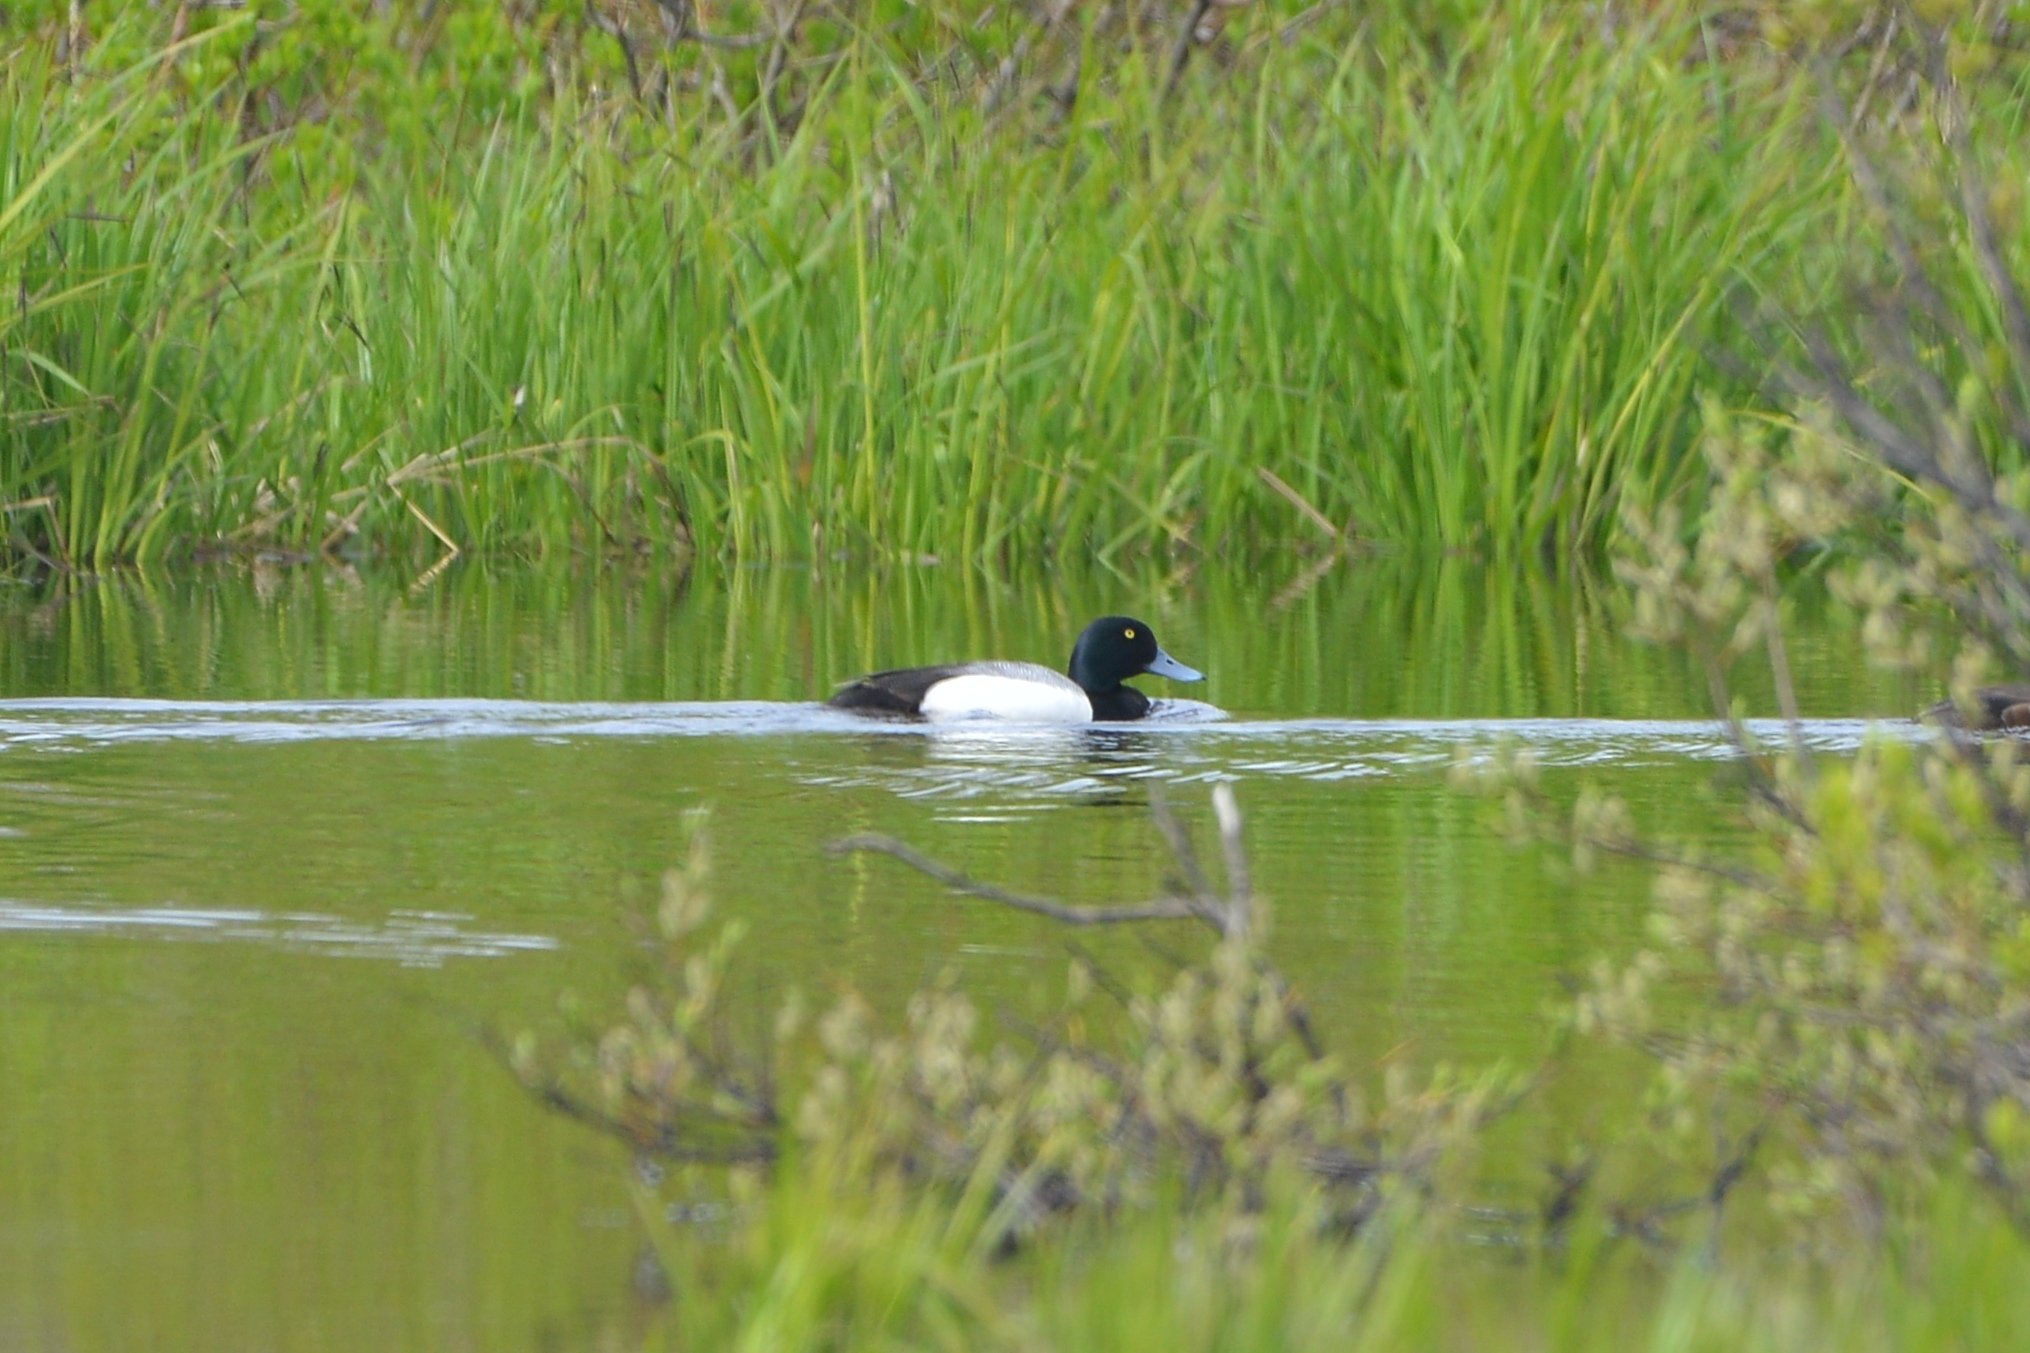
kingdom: Animalia
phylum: Chordata
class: Aves
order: Anseriformes
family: Anatidae
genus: Aythya
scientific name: Aythya marila
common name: Greater scaup
